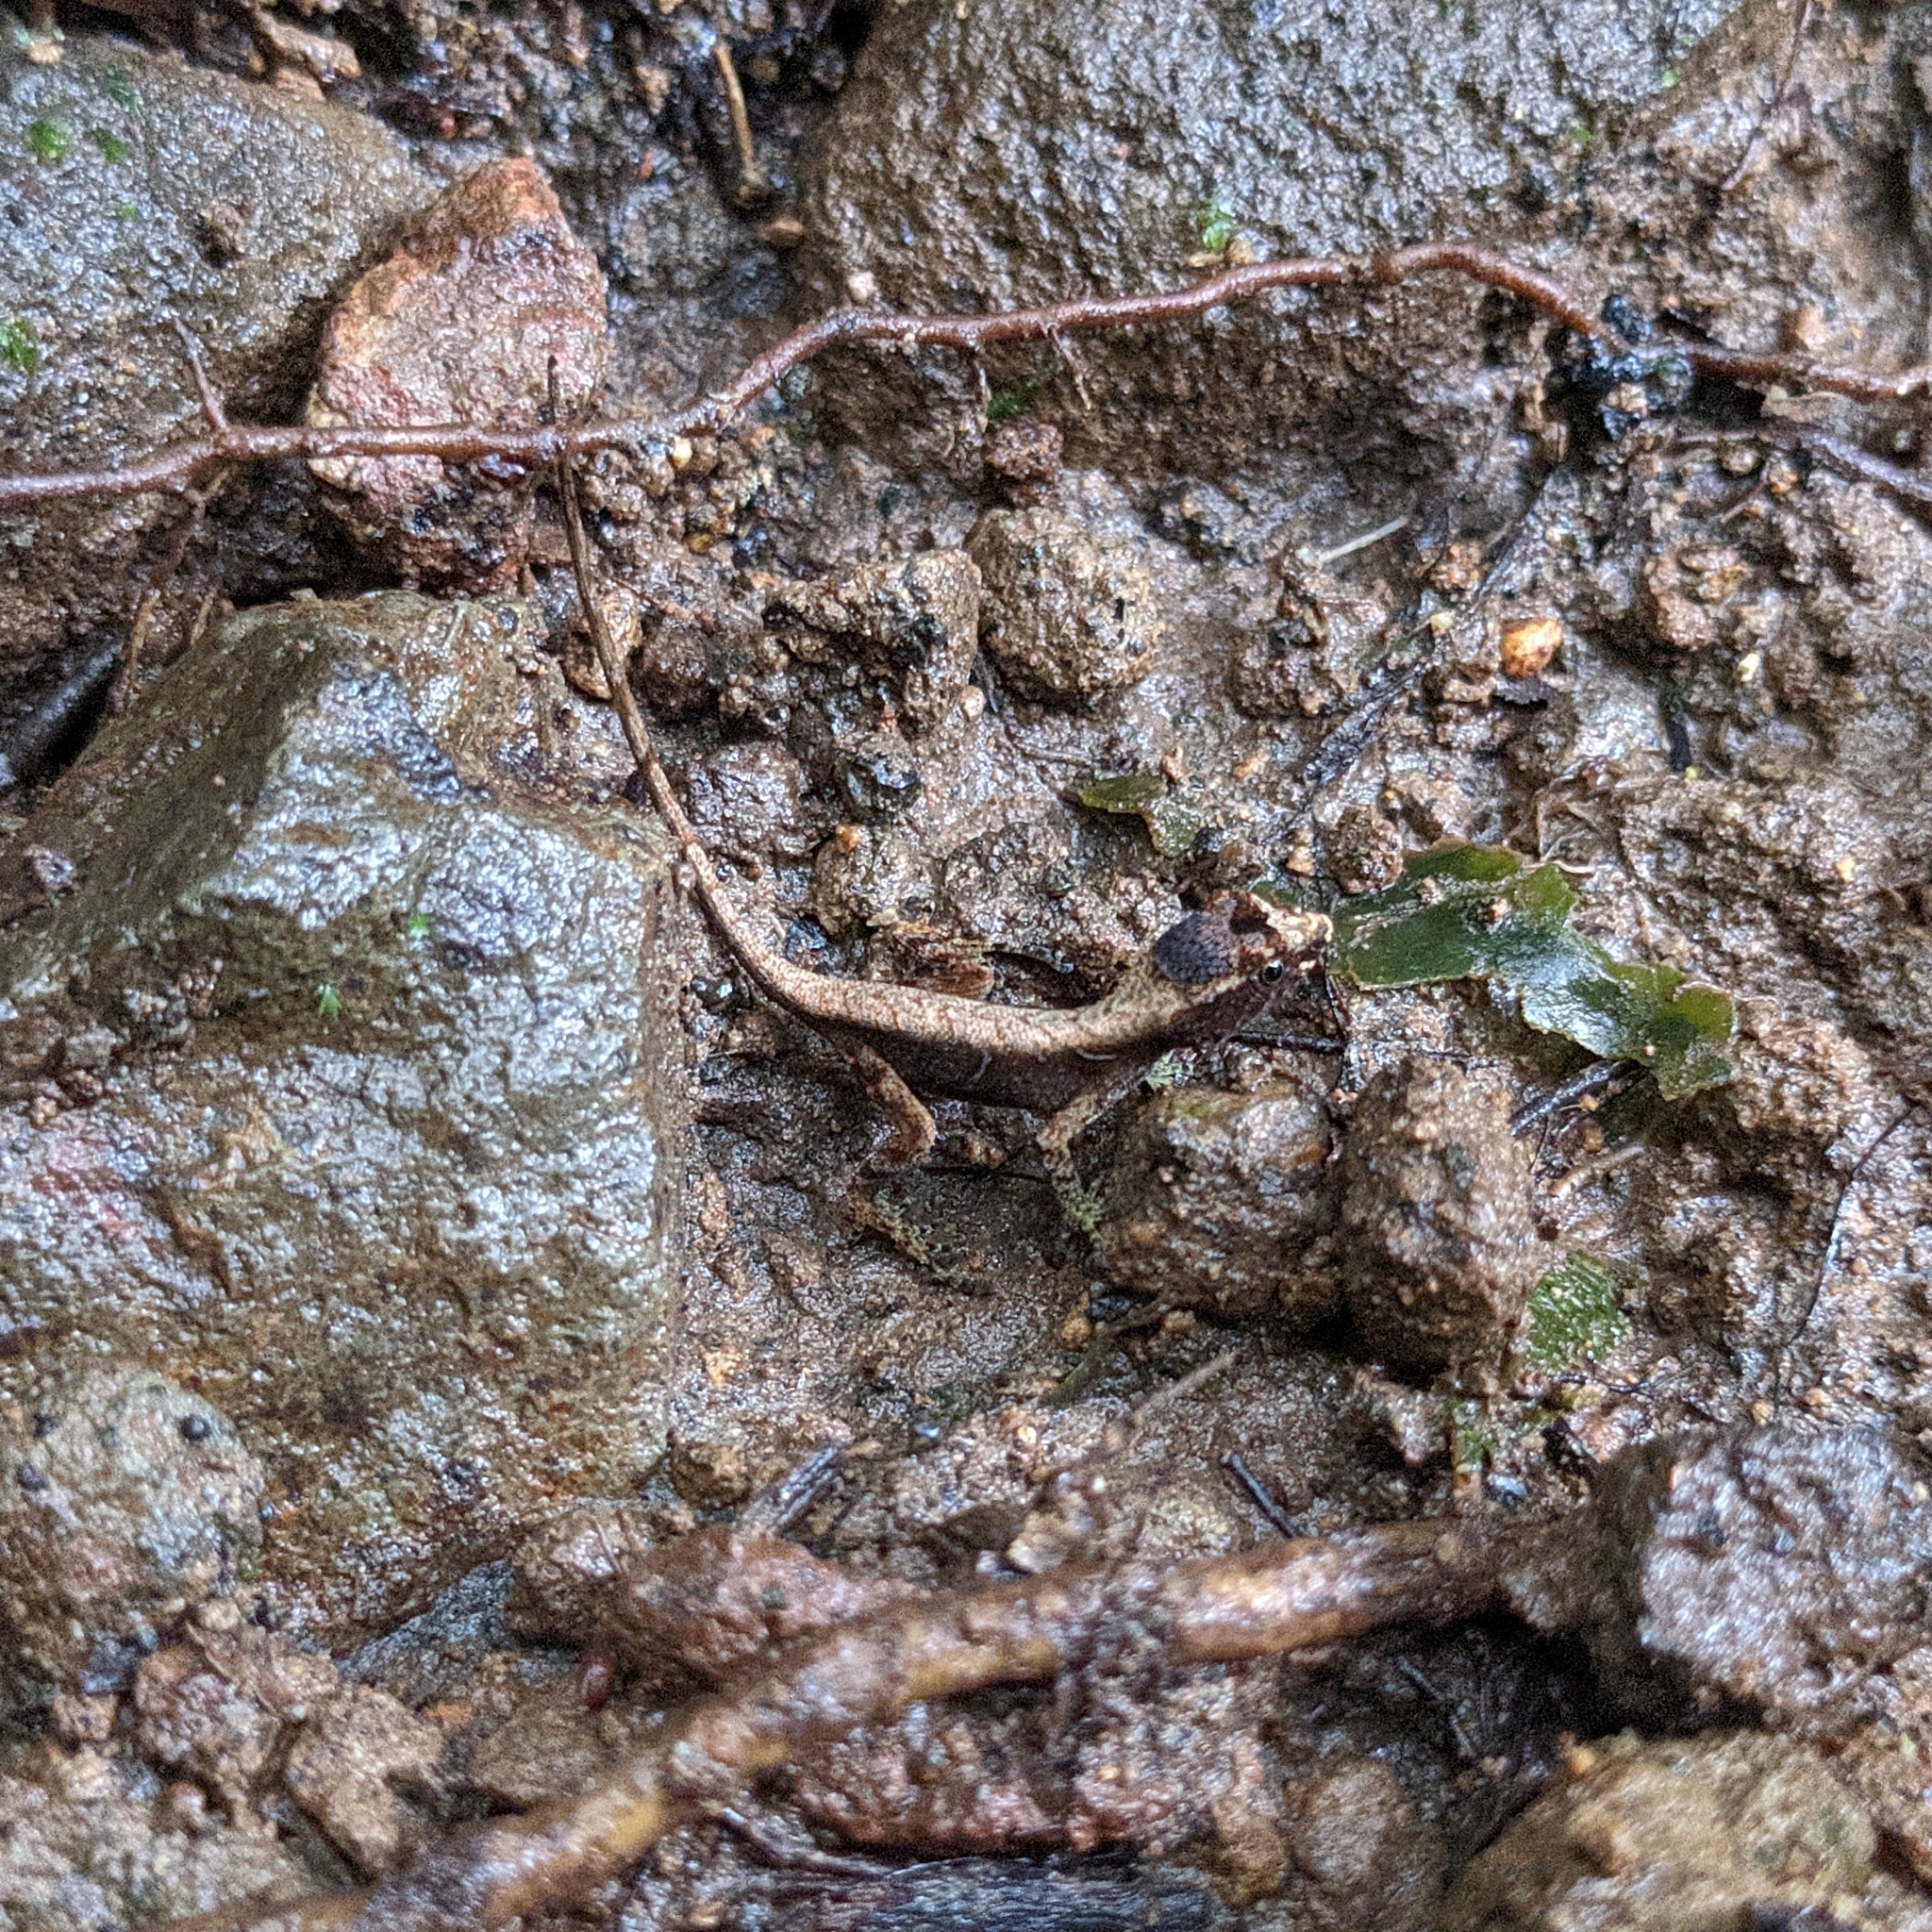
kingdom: Animalia
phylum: Chordata
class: Squamata
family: Dactyloidae
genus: Anolis
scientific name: Anolis humilis
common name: Humble anole
